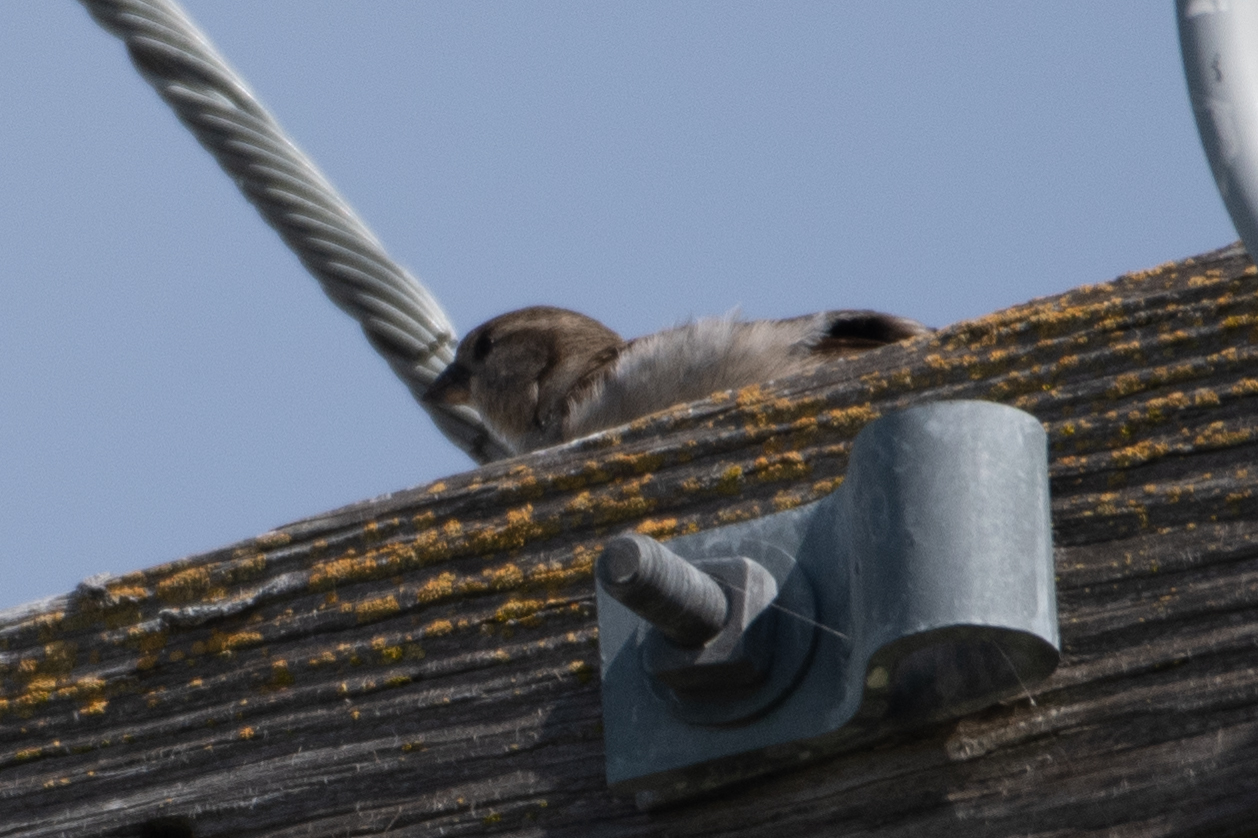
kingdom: Animalia
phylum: Chordata
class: Aves
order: Passeriformes
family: Passeridae
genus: Passer
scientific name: Passer domesticus
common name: House sparrow
